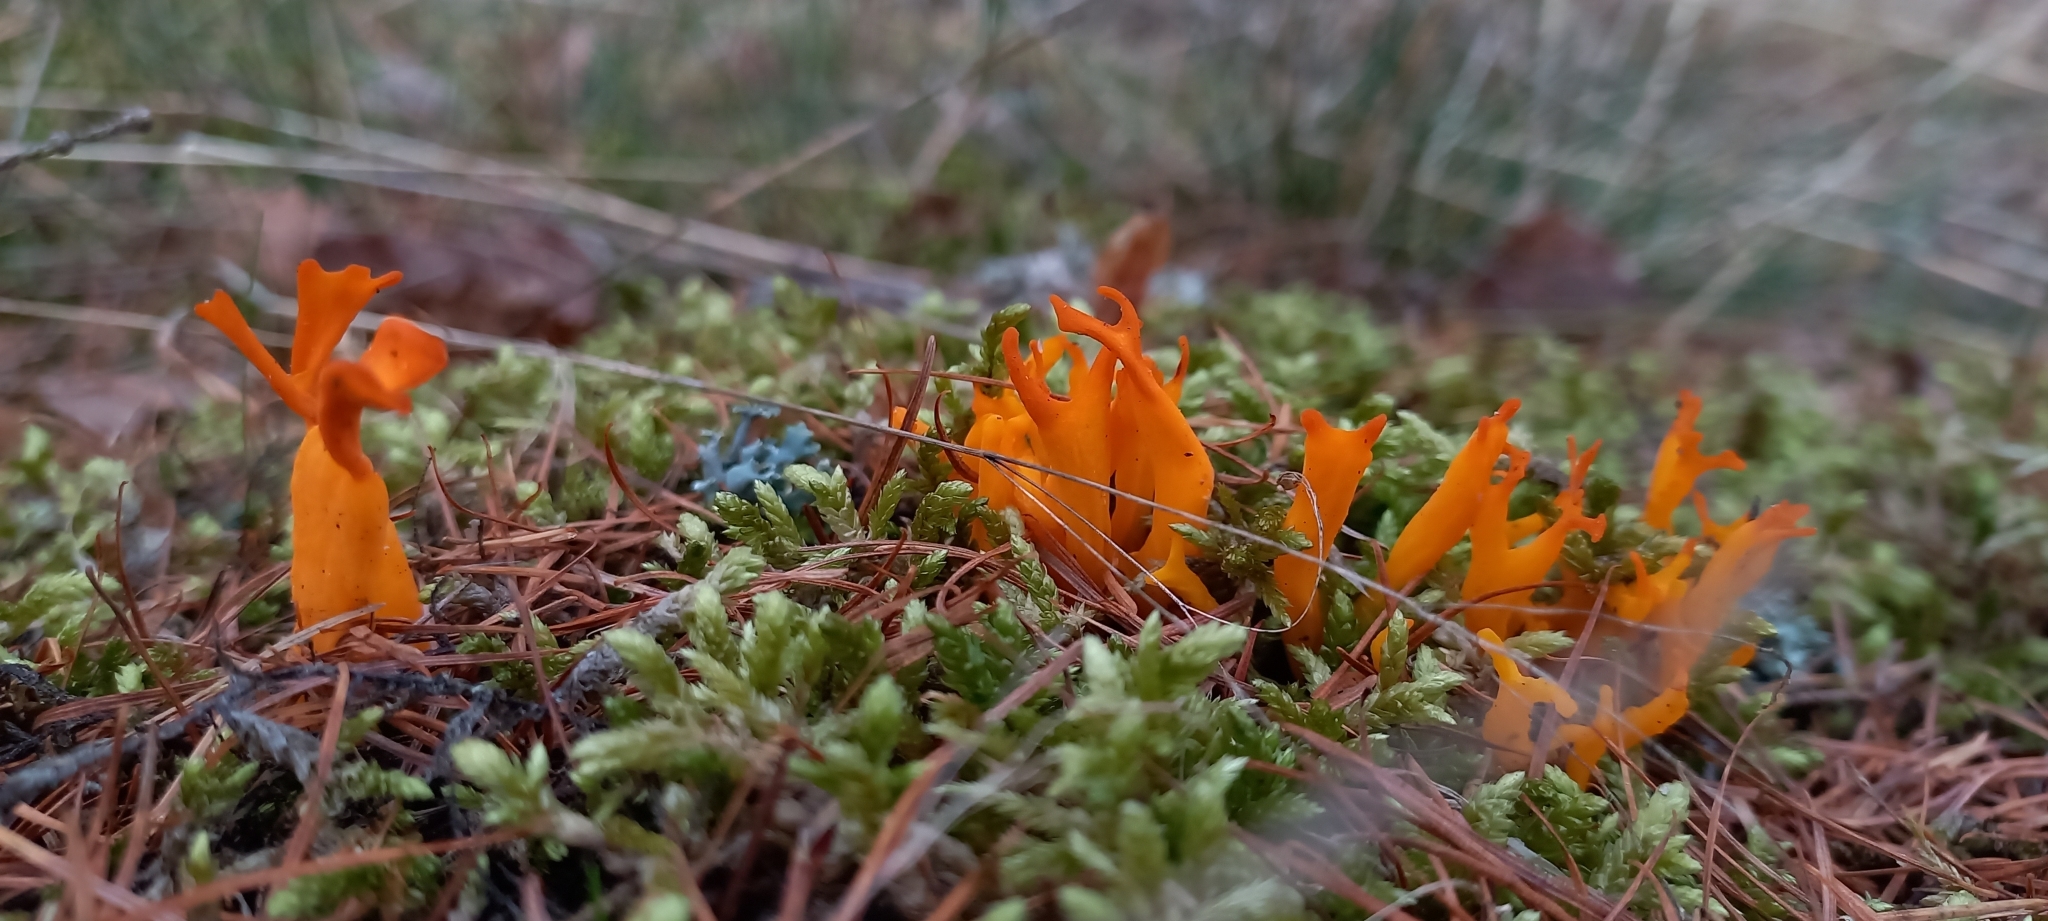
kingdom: Fungi
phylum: Basidiomycota
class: Dacrymycetes
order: Dacrymycetales
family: Dacrymycetaceae
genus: Calocera
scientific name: Calocera viscosa
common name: Yellow stagshorn
